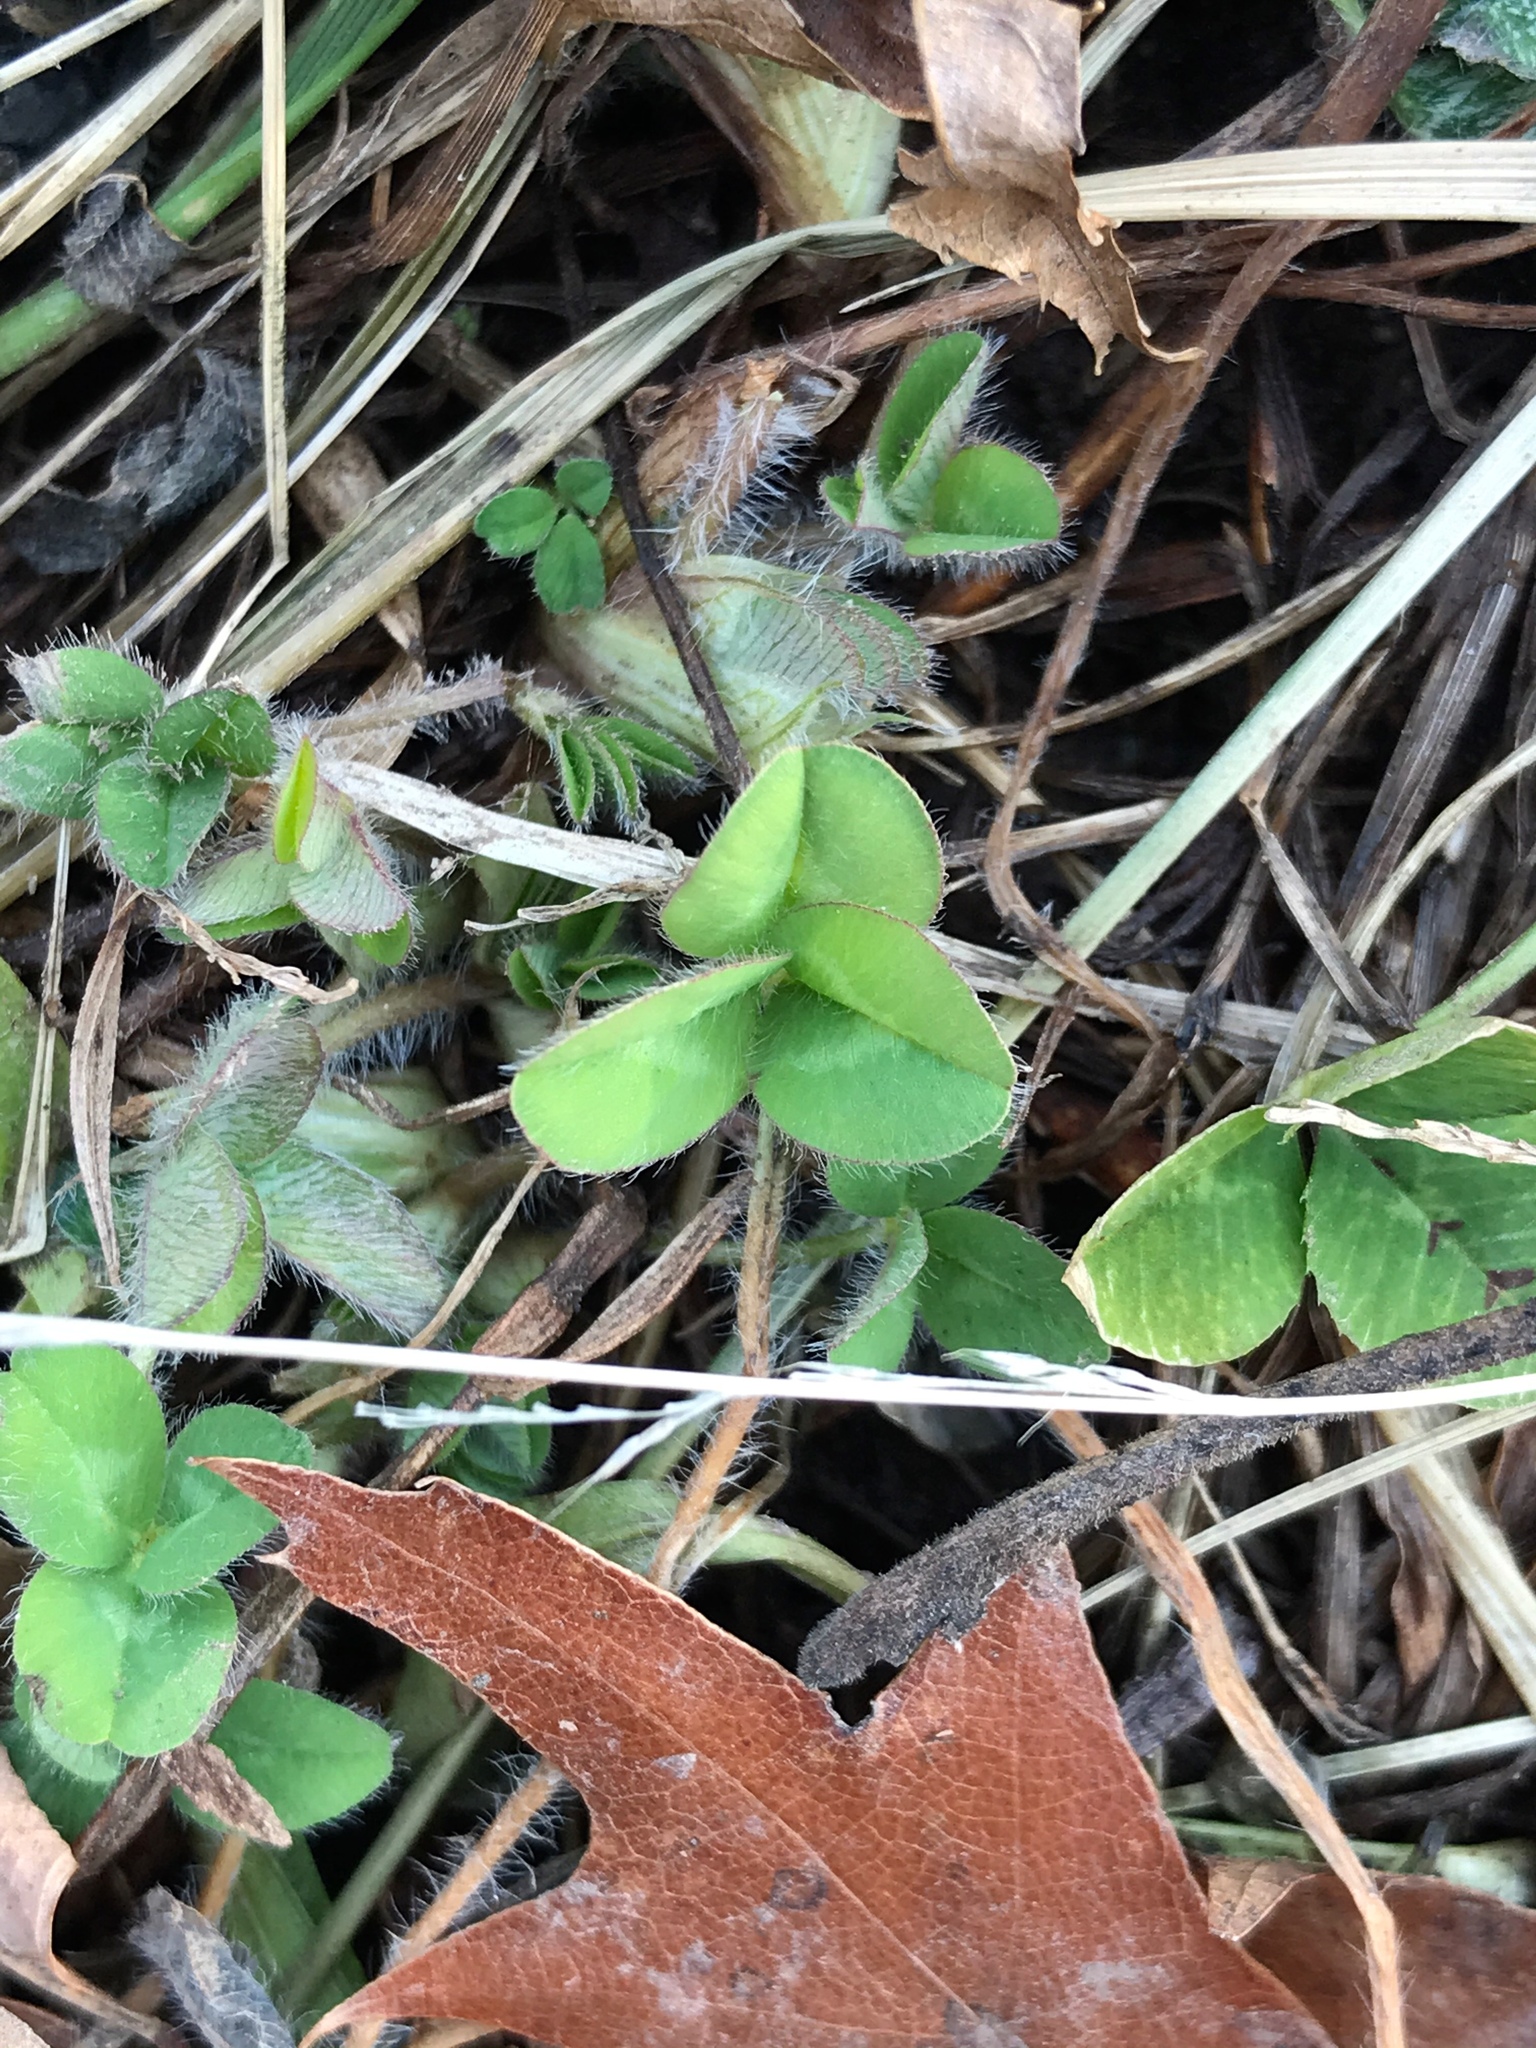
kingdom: Plantae
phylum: Tracheophyta
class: Magnoliopsida
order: Fabales
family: Fabaceae
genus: Trifolium
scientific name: Trifolium pratense
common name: Red clover
